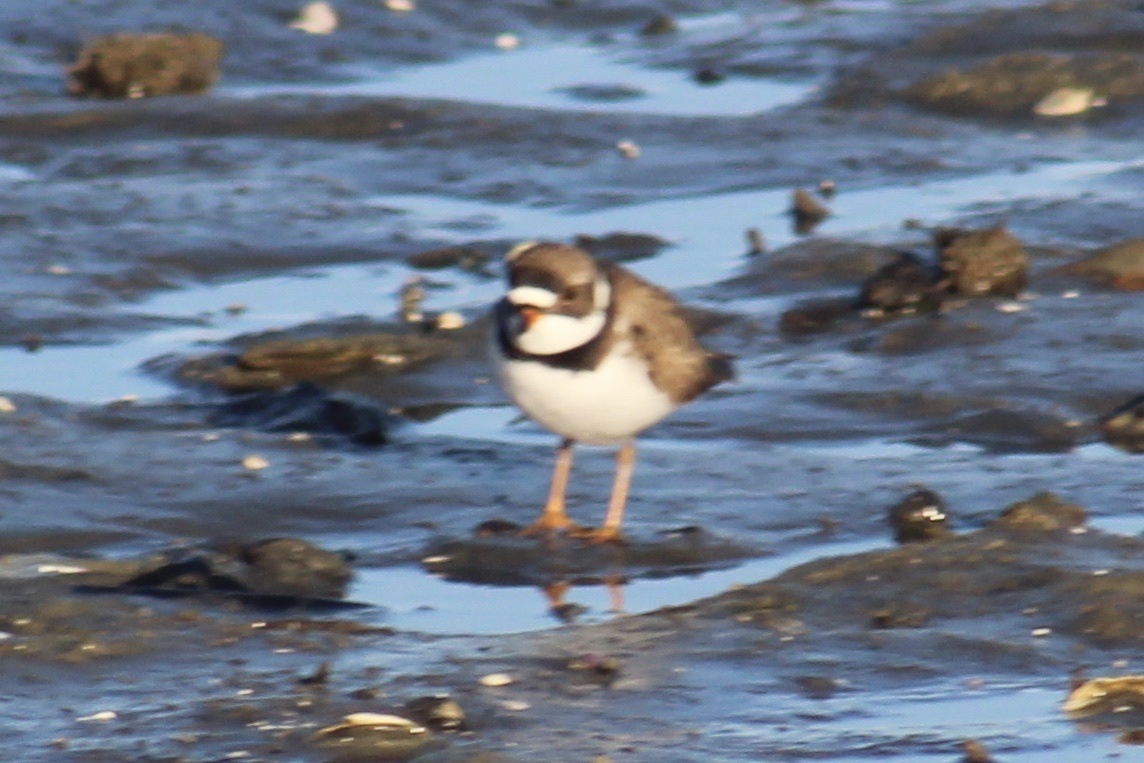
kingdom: Animalia
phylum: Chordata
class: Aves
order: Charadriiformes
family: Charadriidae
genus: Charadrius
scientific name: Charadrius semipalmatus
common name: Semipalmated plover
